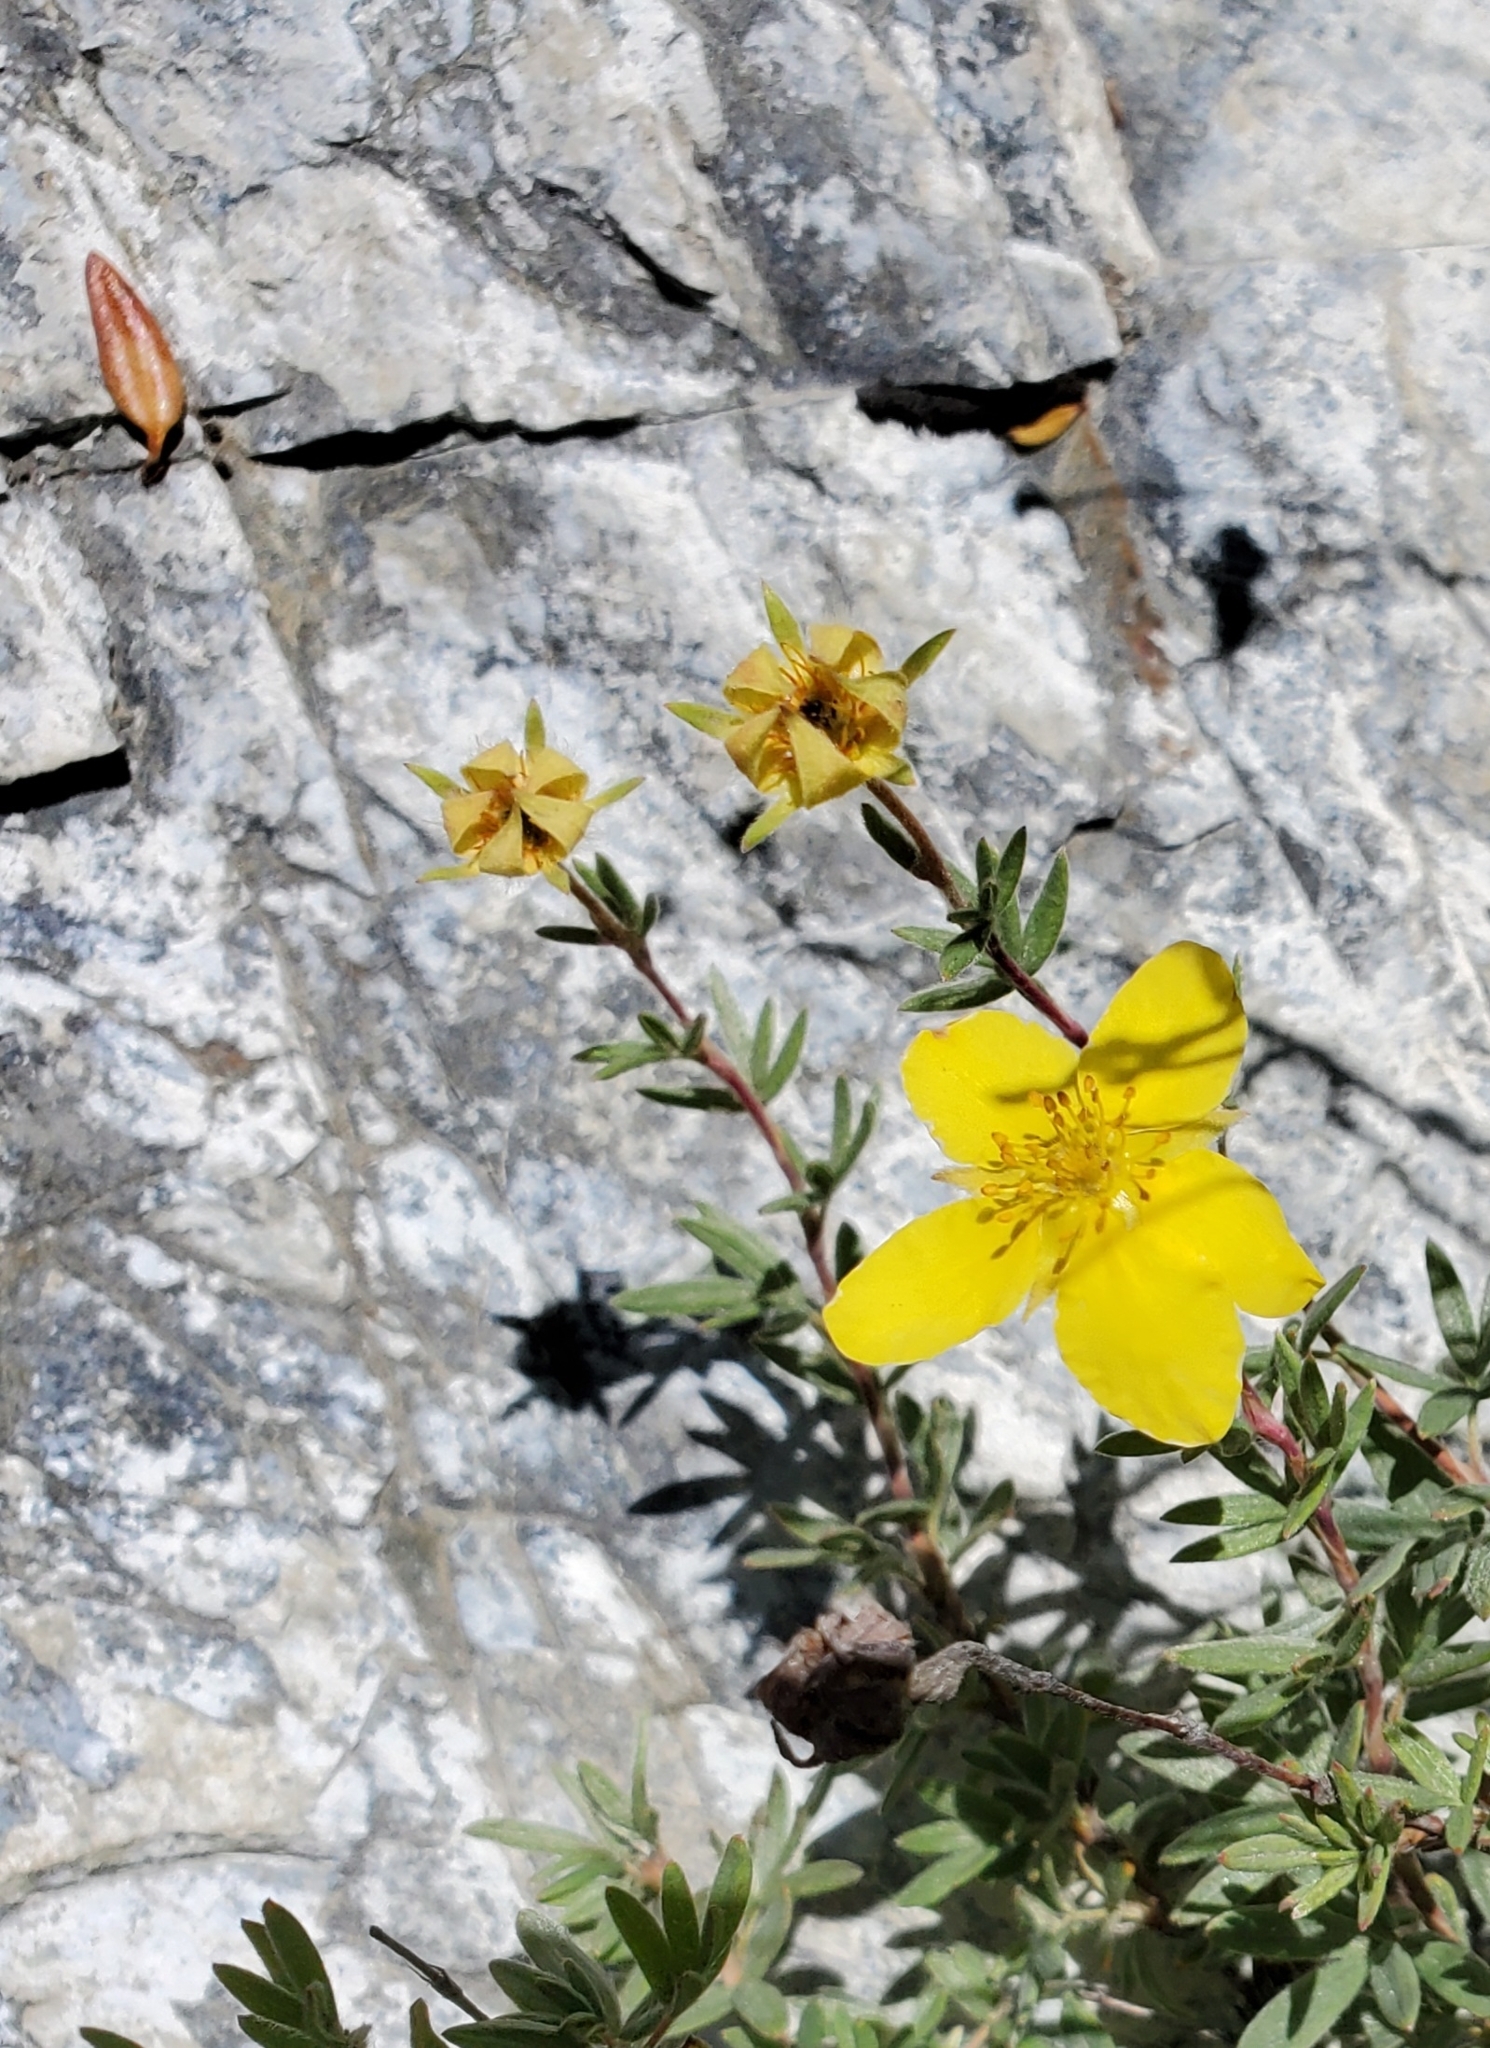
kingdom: Plantae
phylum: Tracheophyta
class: Magnoliopsida
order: Rosales
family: Rosaceae
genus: Dasiphora
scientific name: Dasiphora fruticosa
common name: Shrubby cinquefoil
